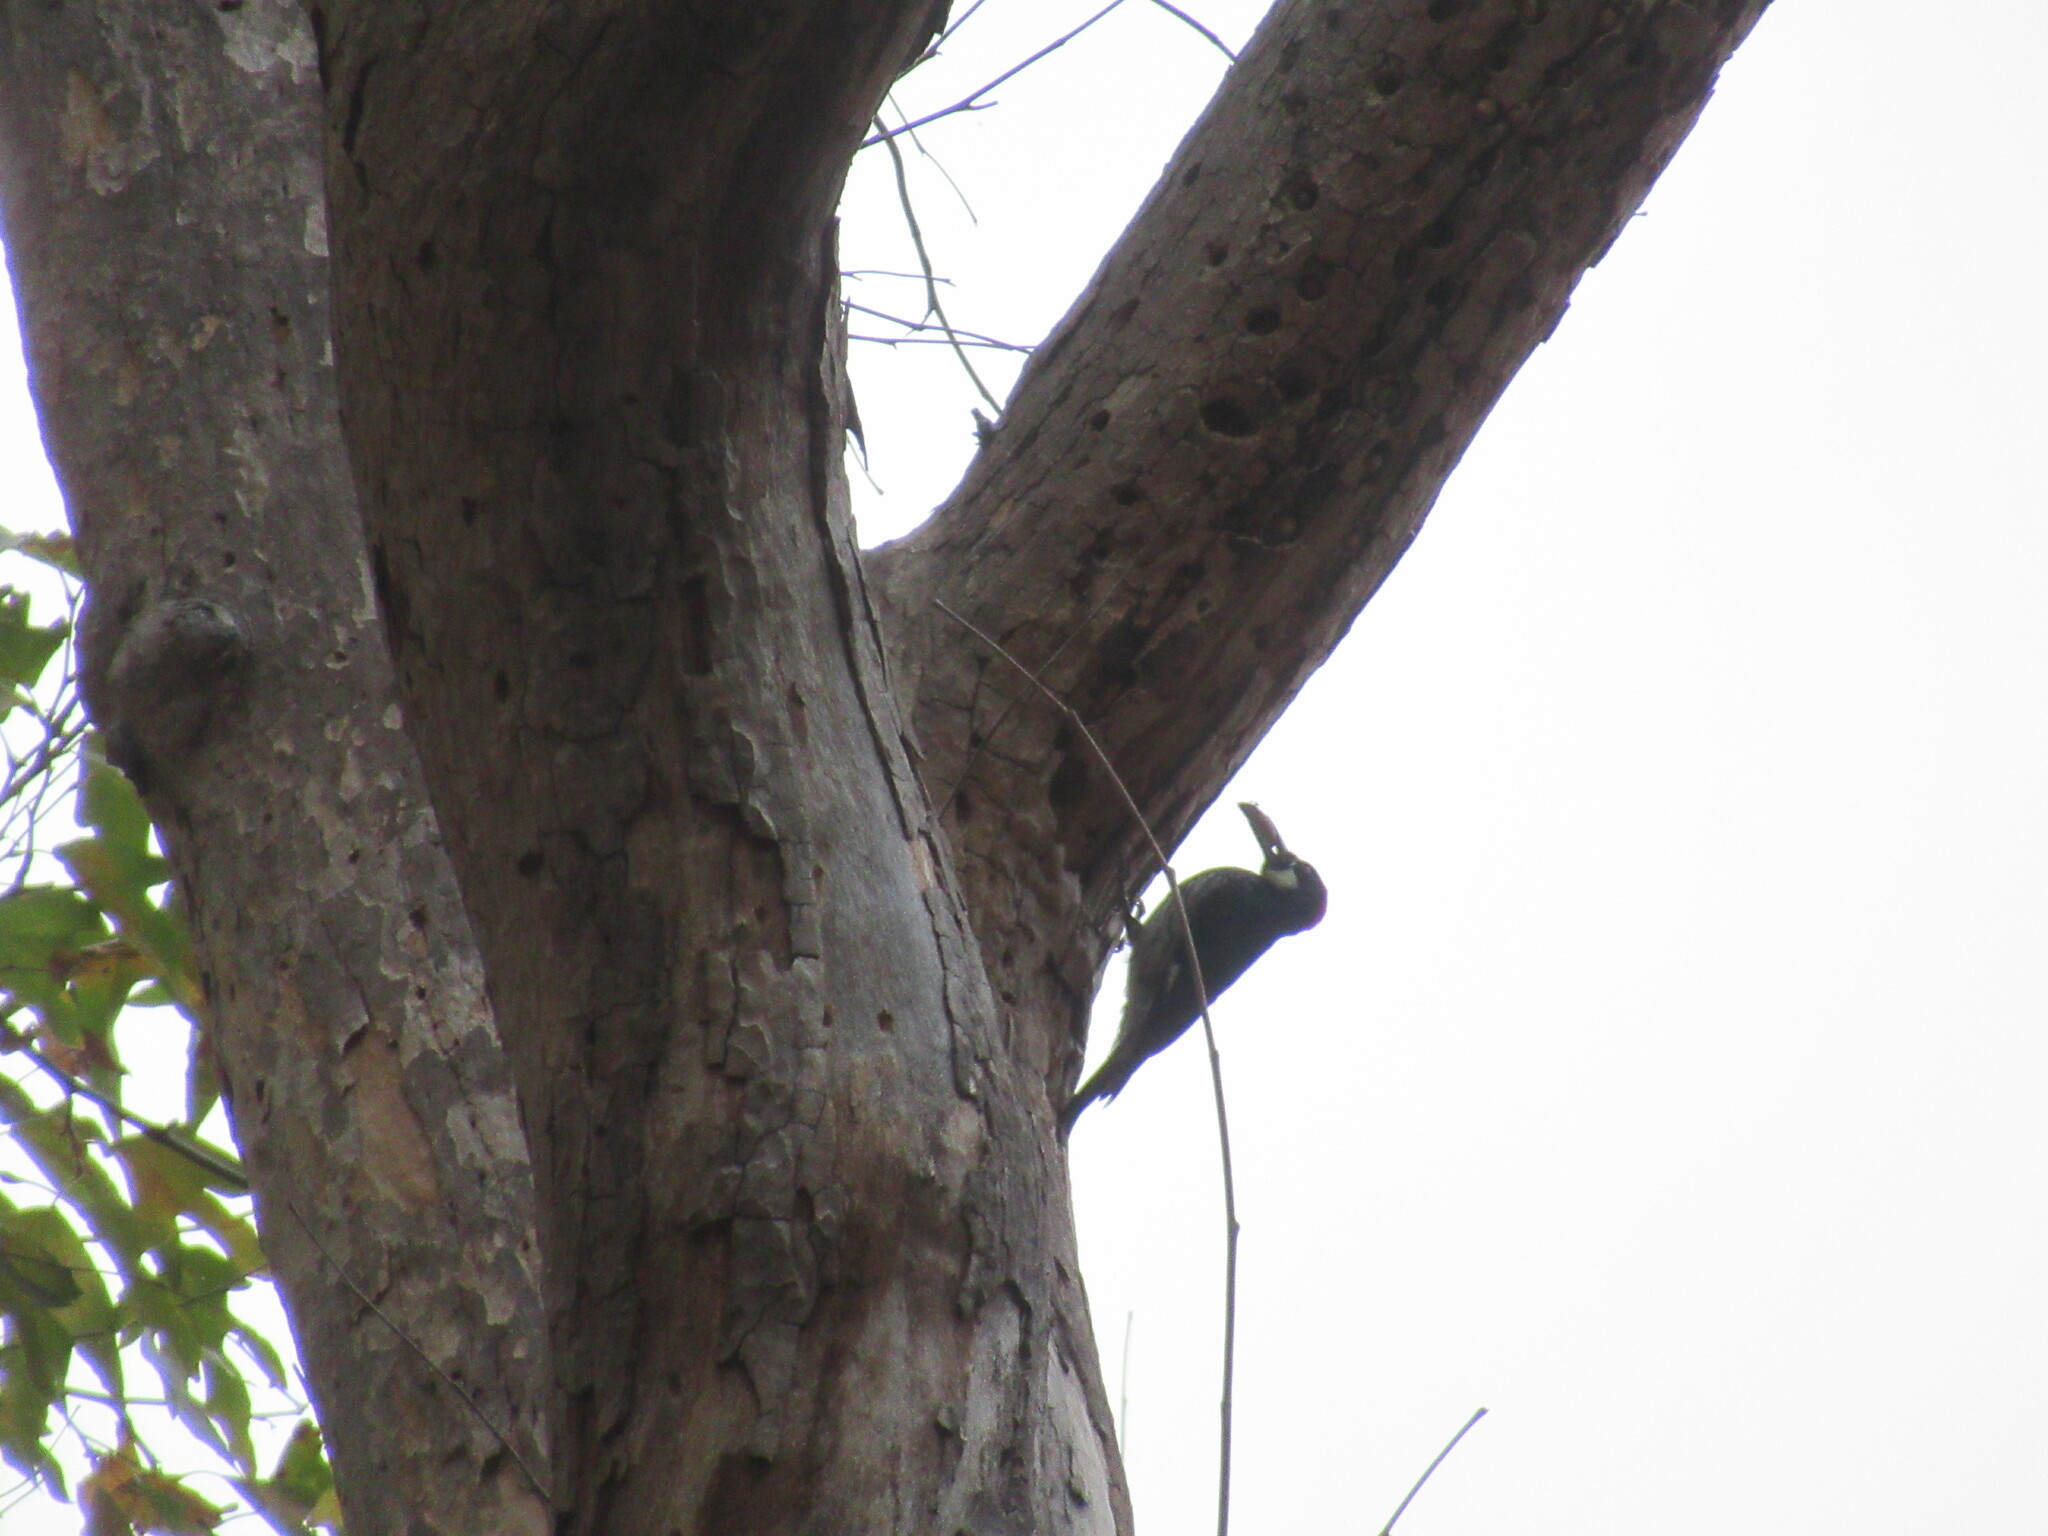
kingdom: Animalia
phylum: Chordata
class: Aves
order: Piciformes
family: Picidae
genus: Melanerpes
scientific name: Melanerpes formicivorus
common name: Acorn woodpecker
